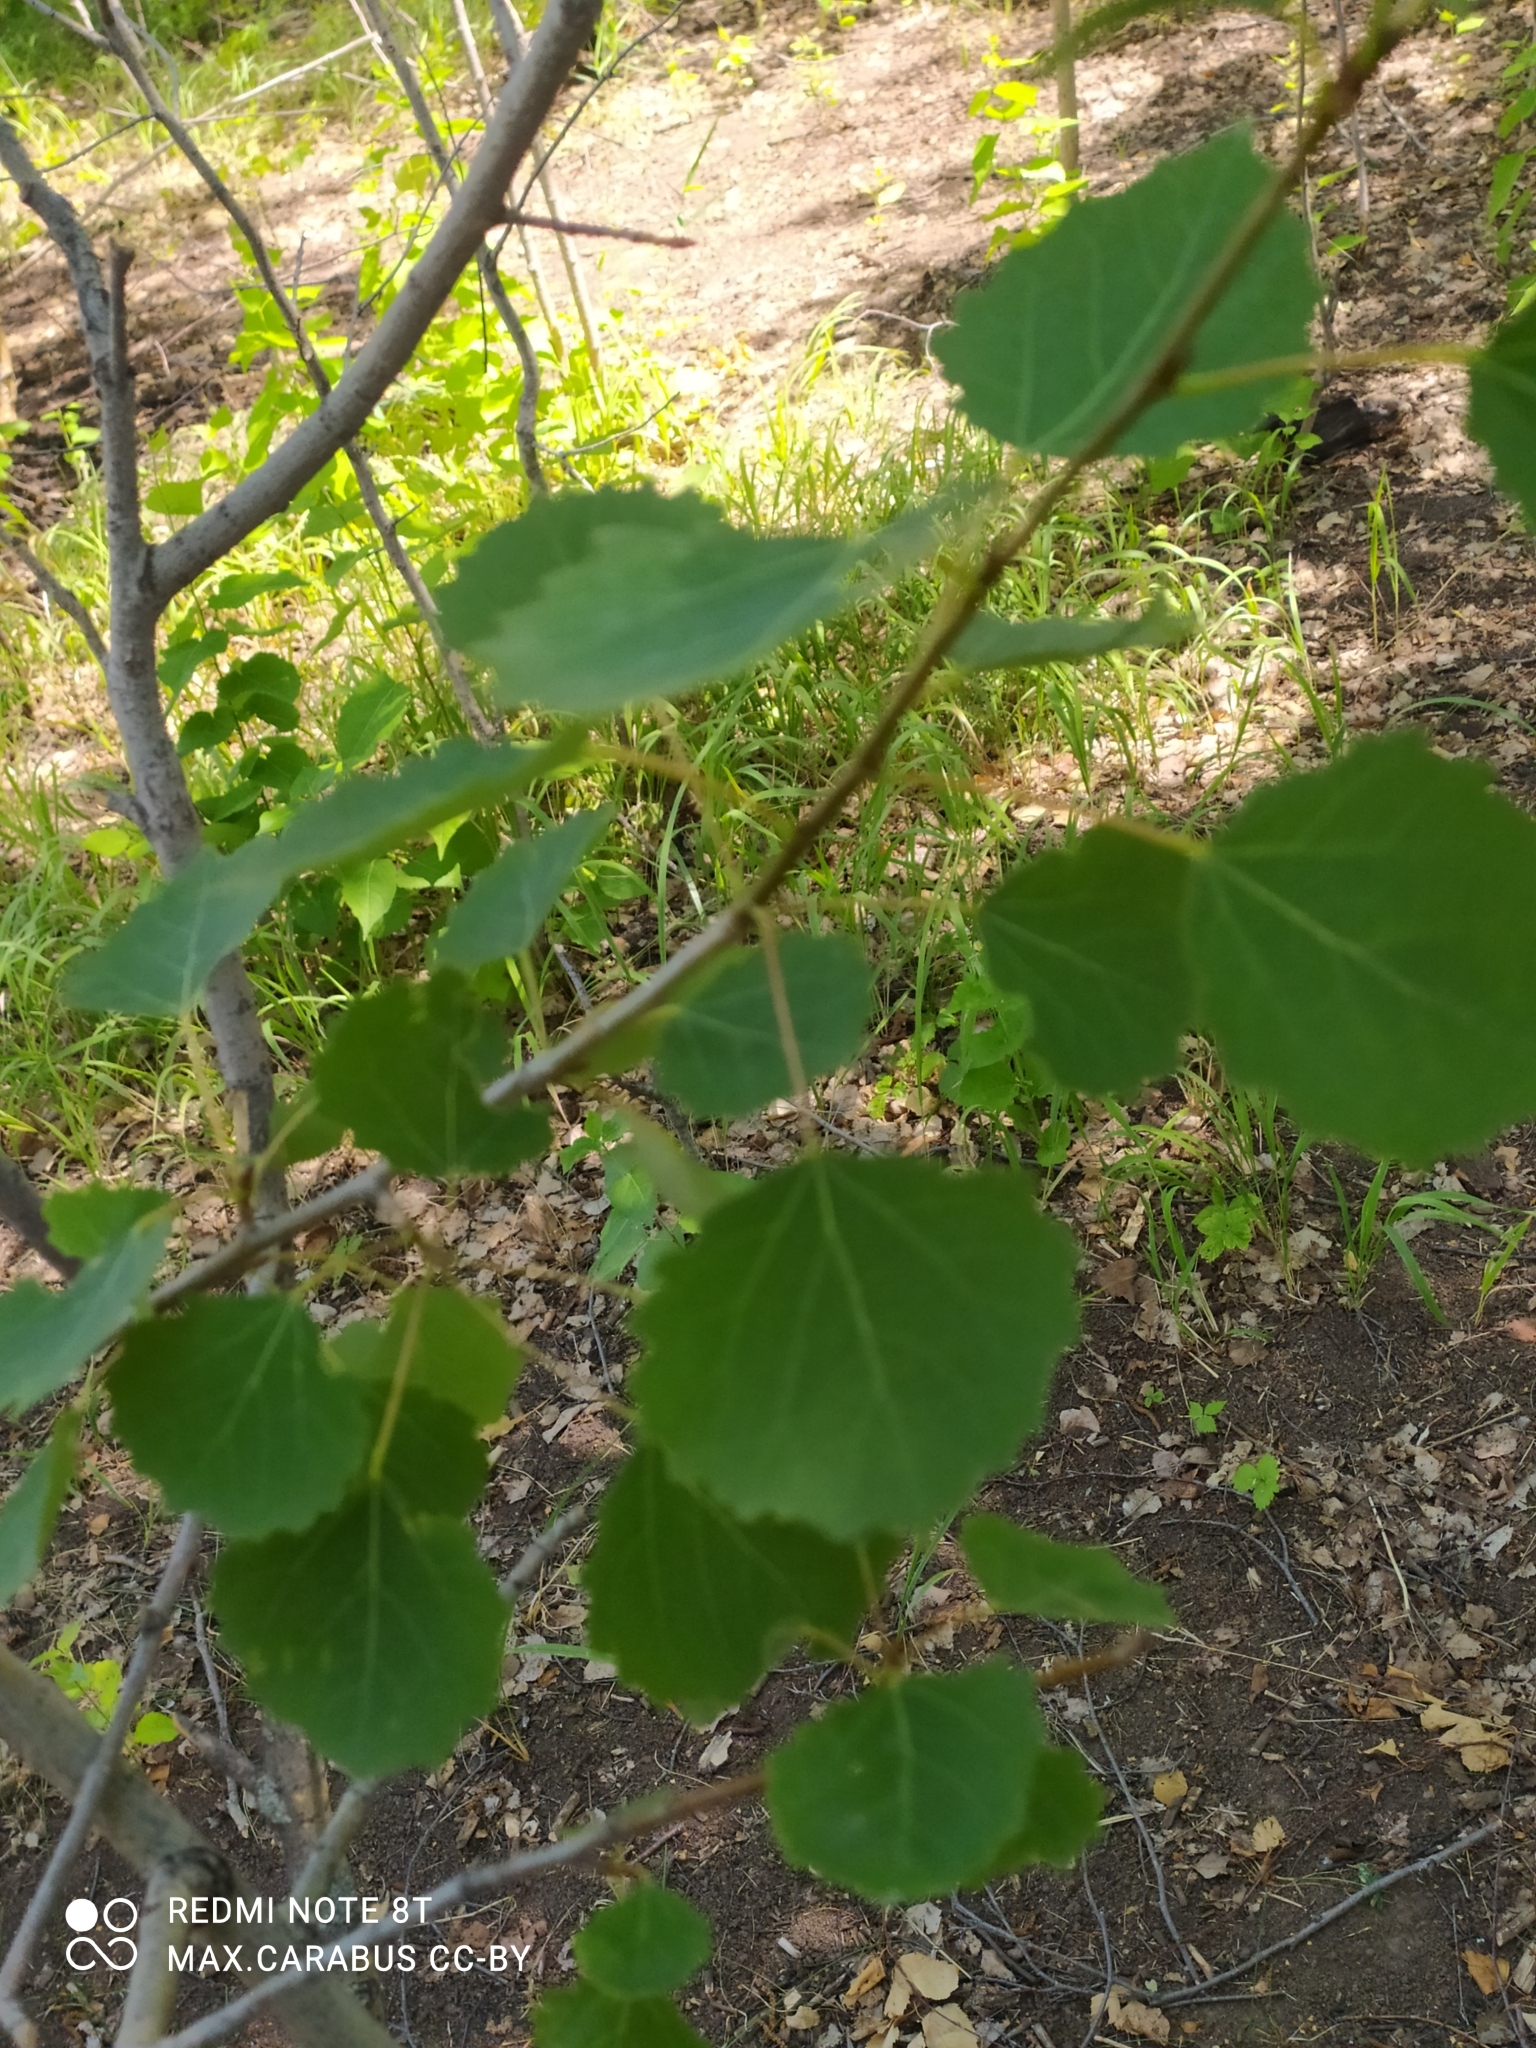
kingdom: Plantae
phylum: Tracheophyta
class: Magnoliopsida
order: Malpighiales
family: Salicaceae
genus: Populus
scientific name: Populus tremula
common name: European aspen
